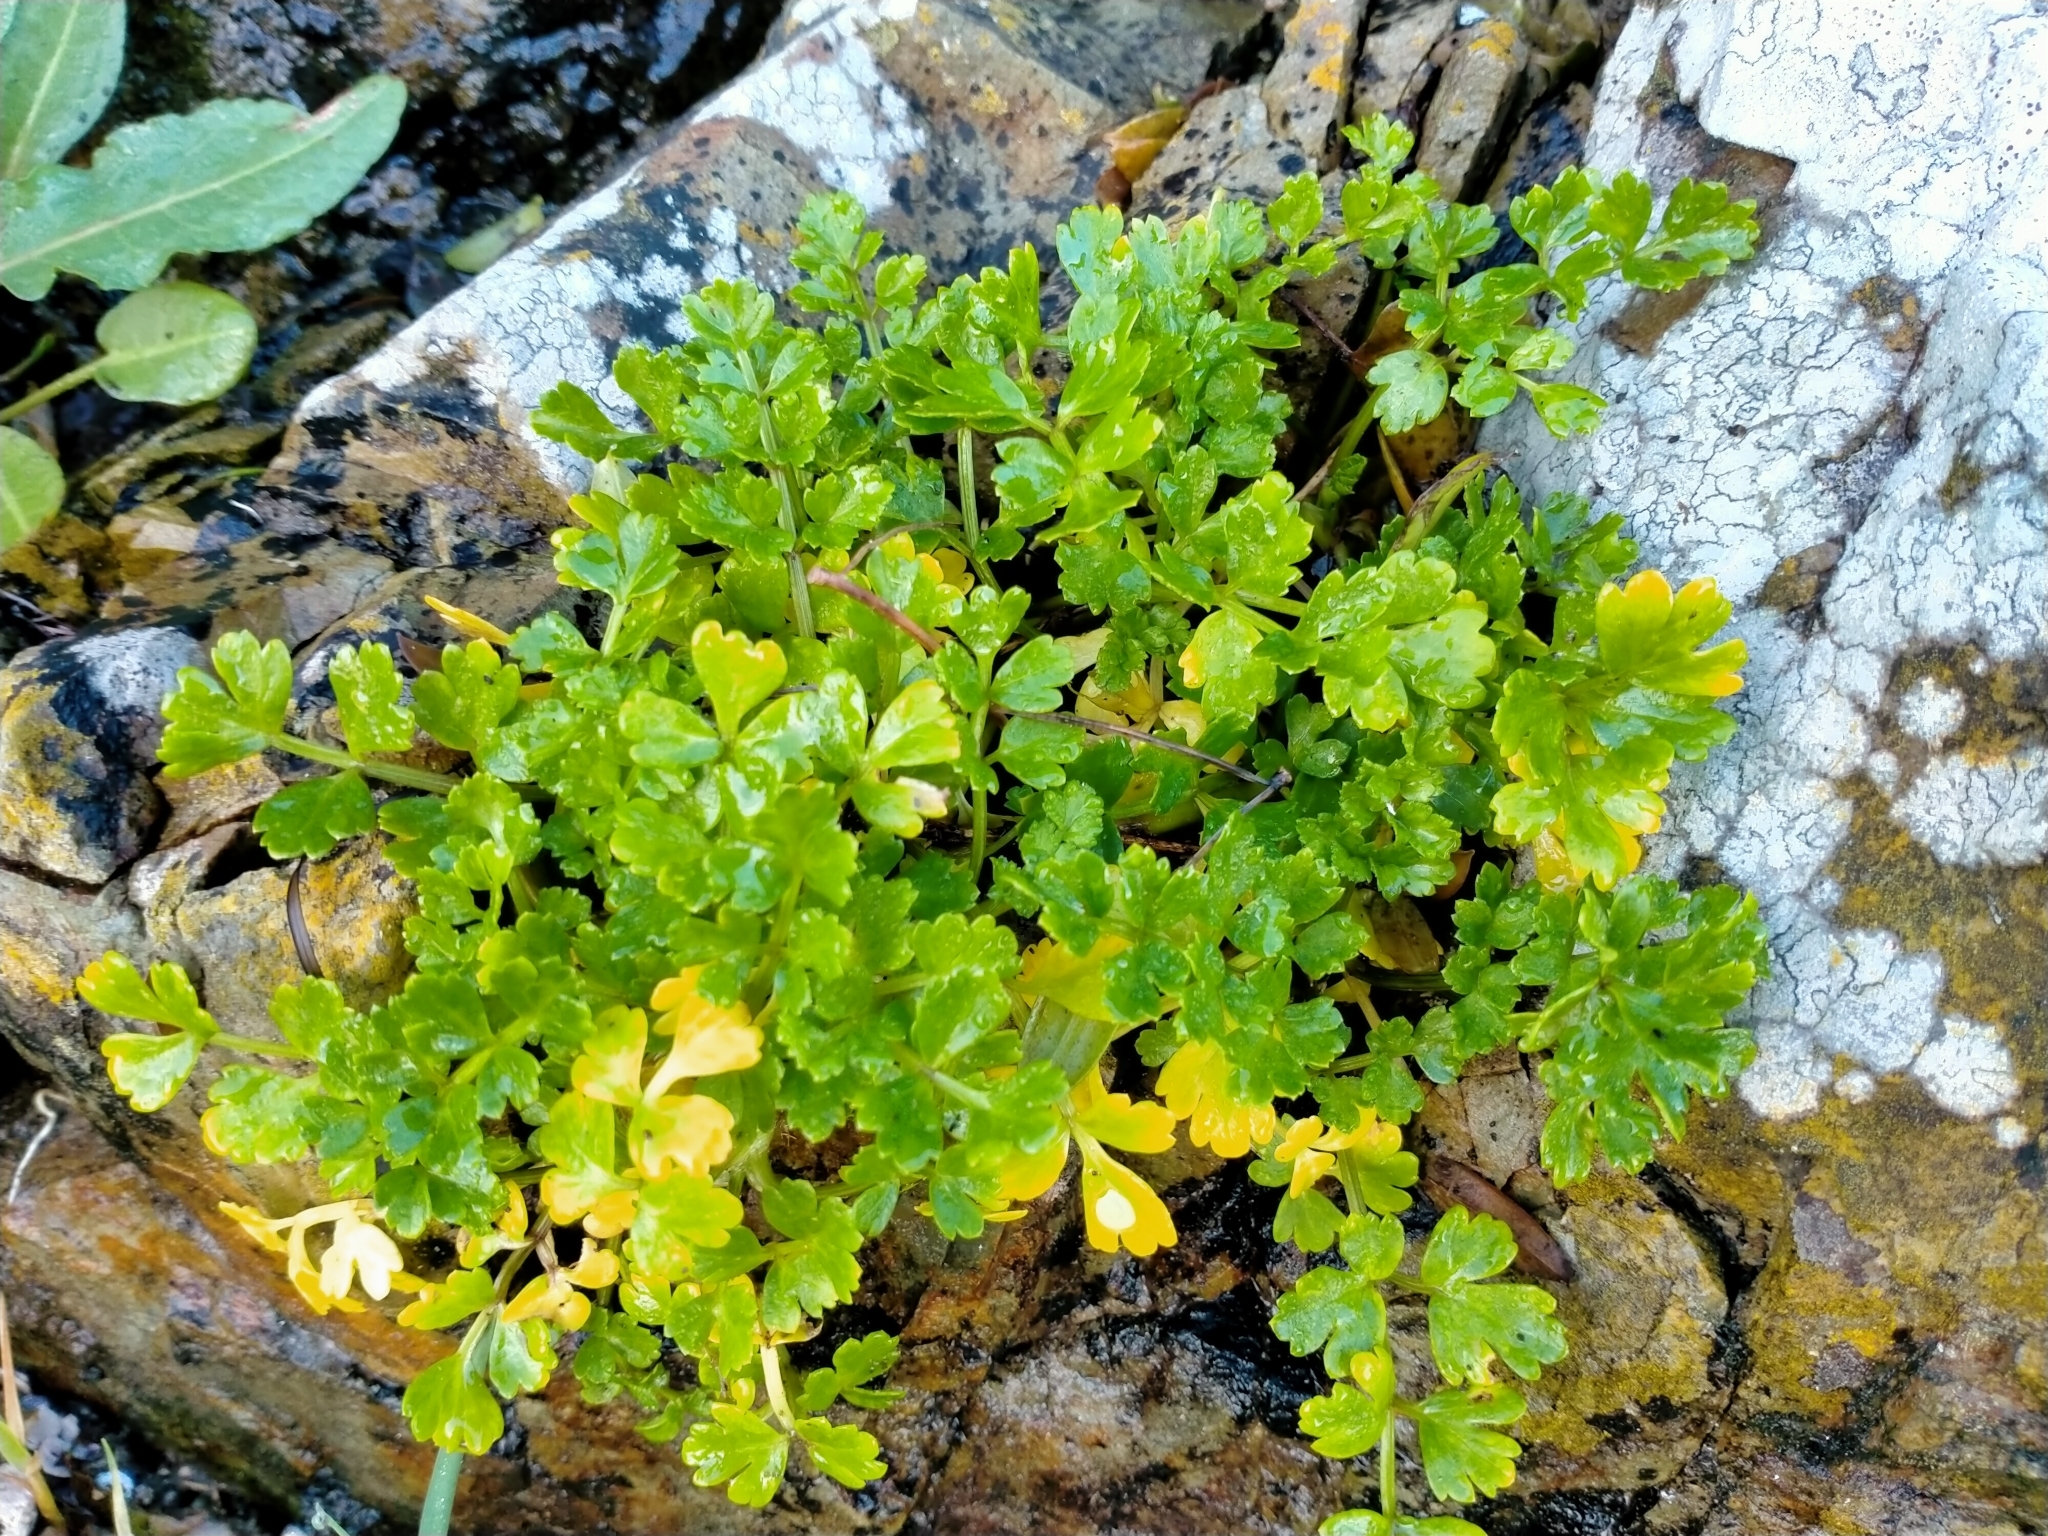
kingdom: Plantae
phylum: Tracheophyta
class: Magnoliopsida
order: Apiales
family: Apiaceae
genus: Apium
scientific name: Apium prostratum
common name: Prostrate marshwort
